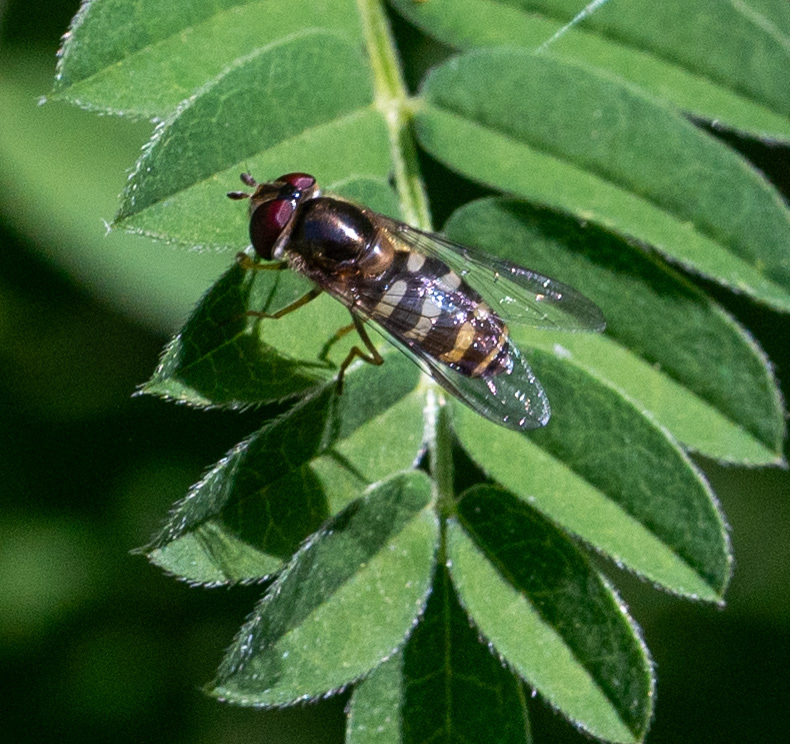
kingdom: Animalia
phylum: Arthropoda
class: Insecta
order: Diptera
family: Syrphidae
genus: Lapposyrphus
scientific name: Lapposyrphus lapponicus
